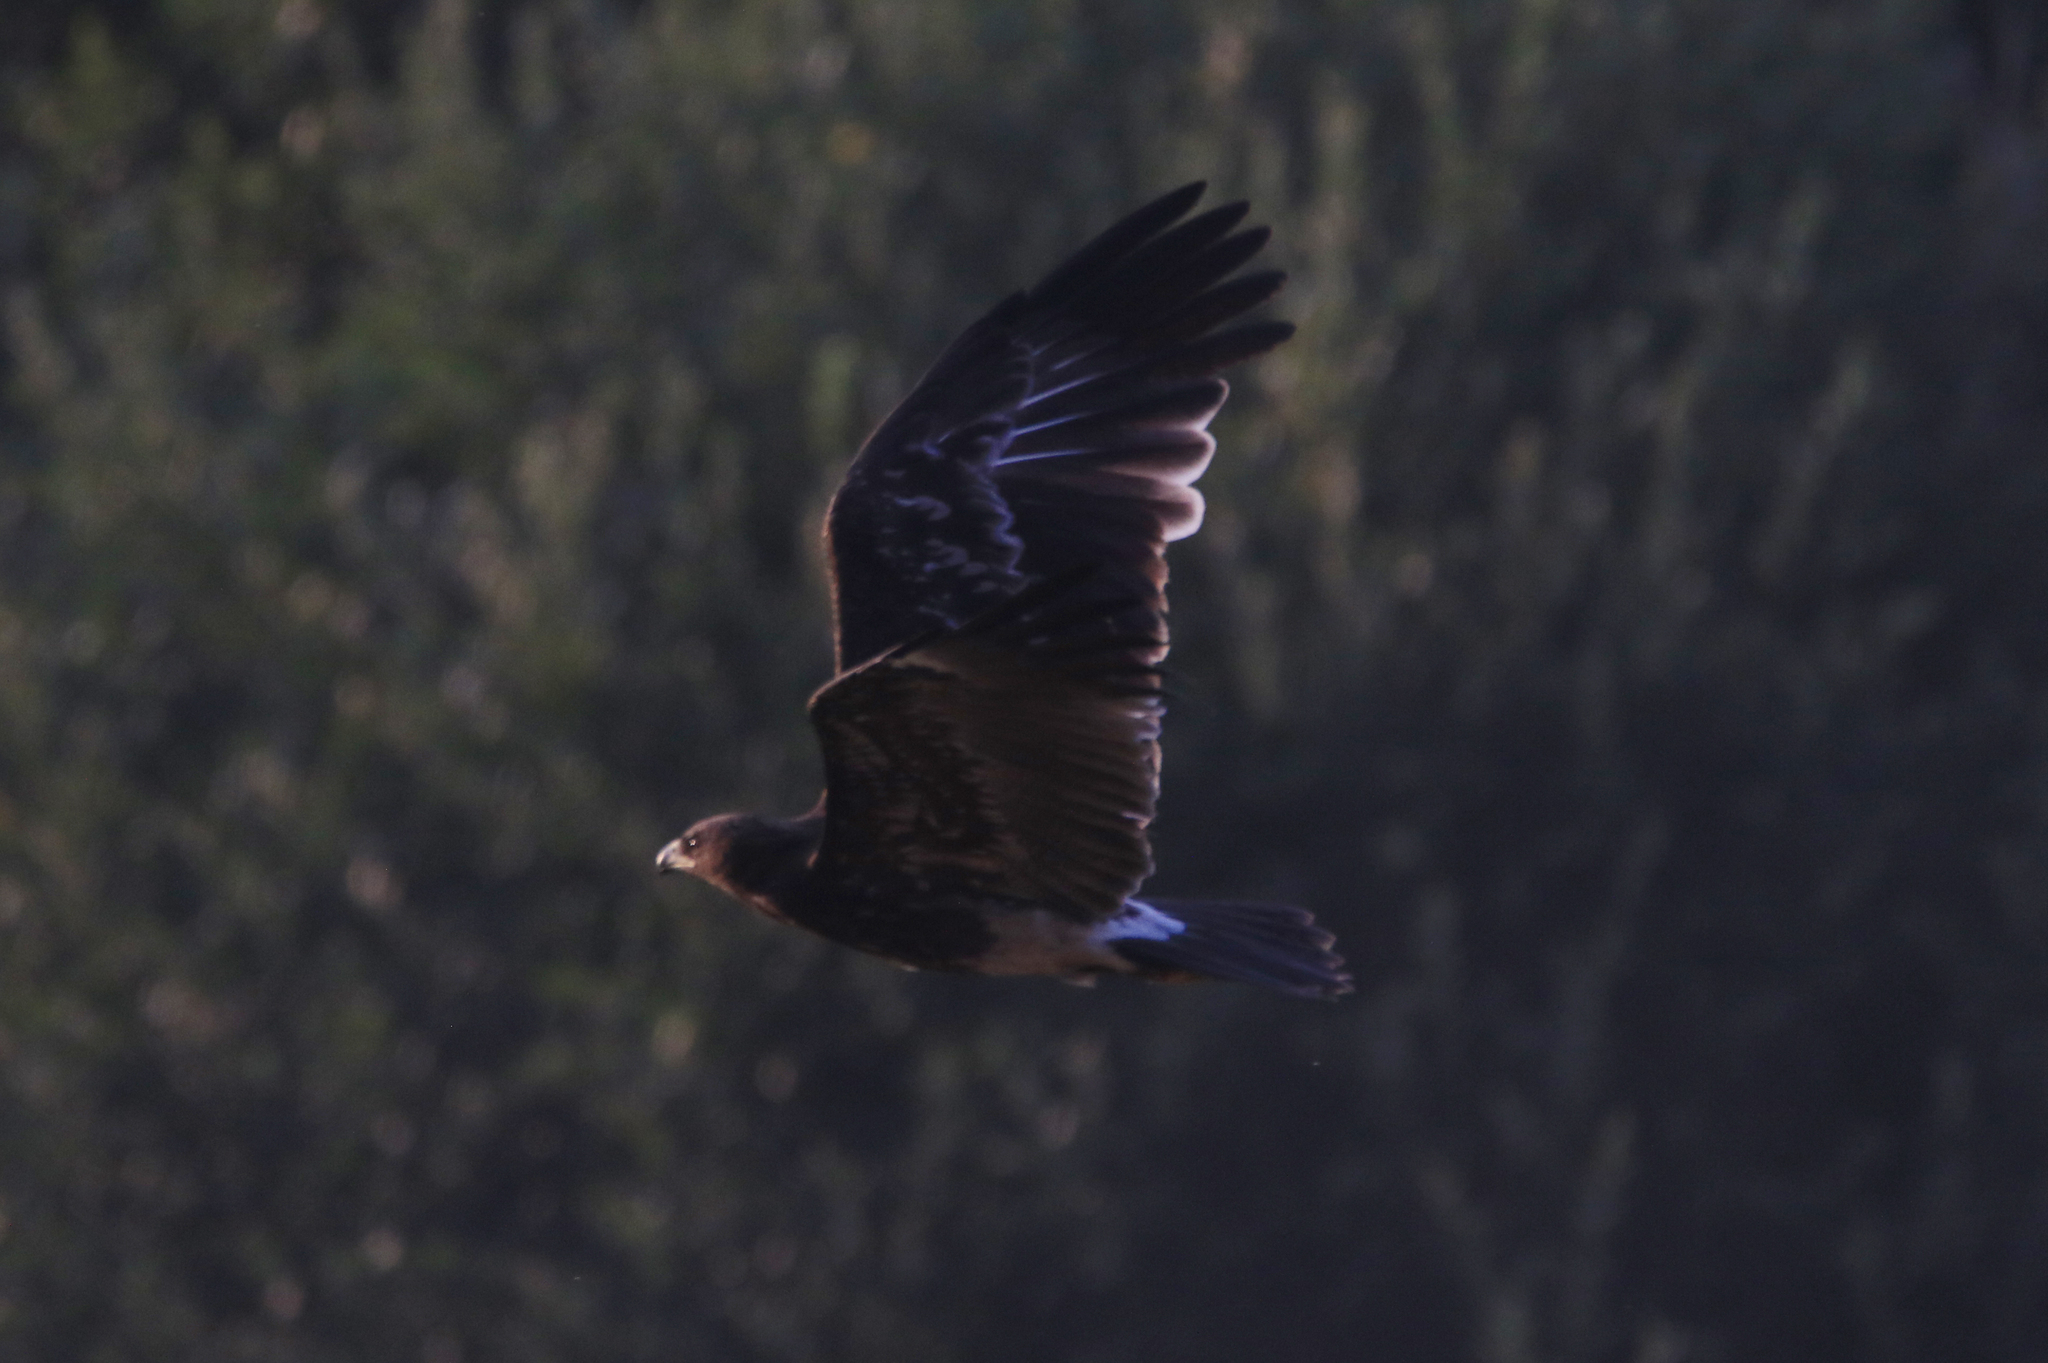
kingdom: Animalia
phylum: Chordata
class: Aves
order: Accipitriformes
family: Accipitridae
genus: Aquila
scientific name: Aquila clanga
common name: Greater spotted eagle
